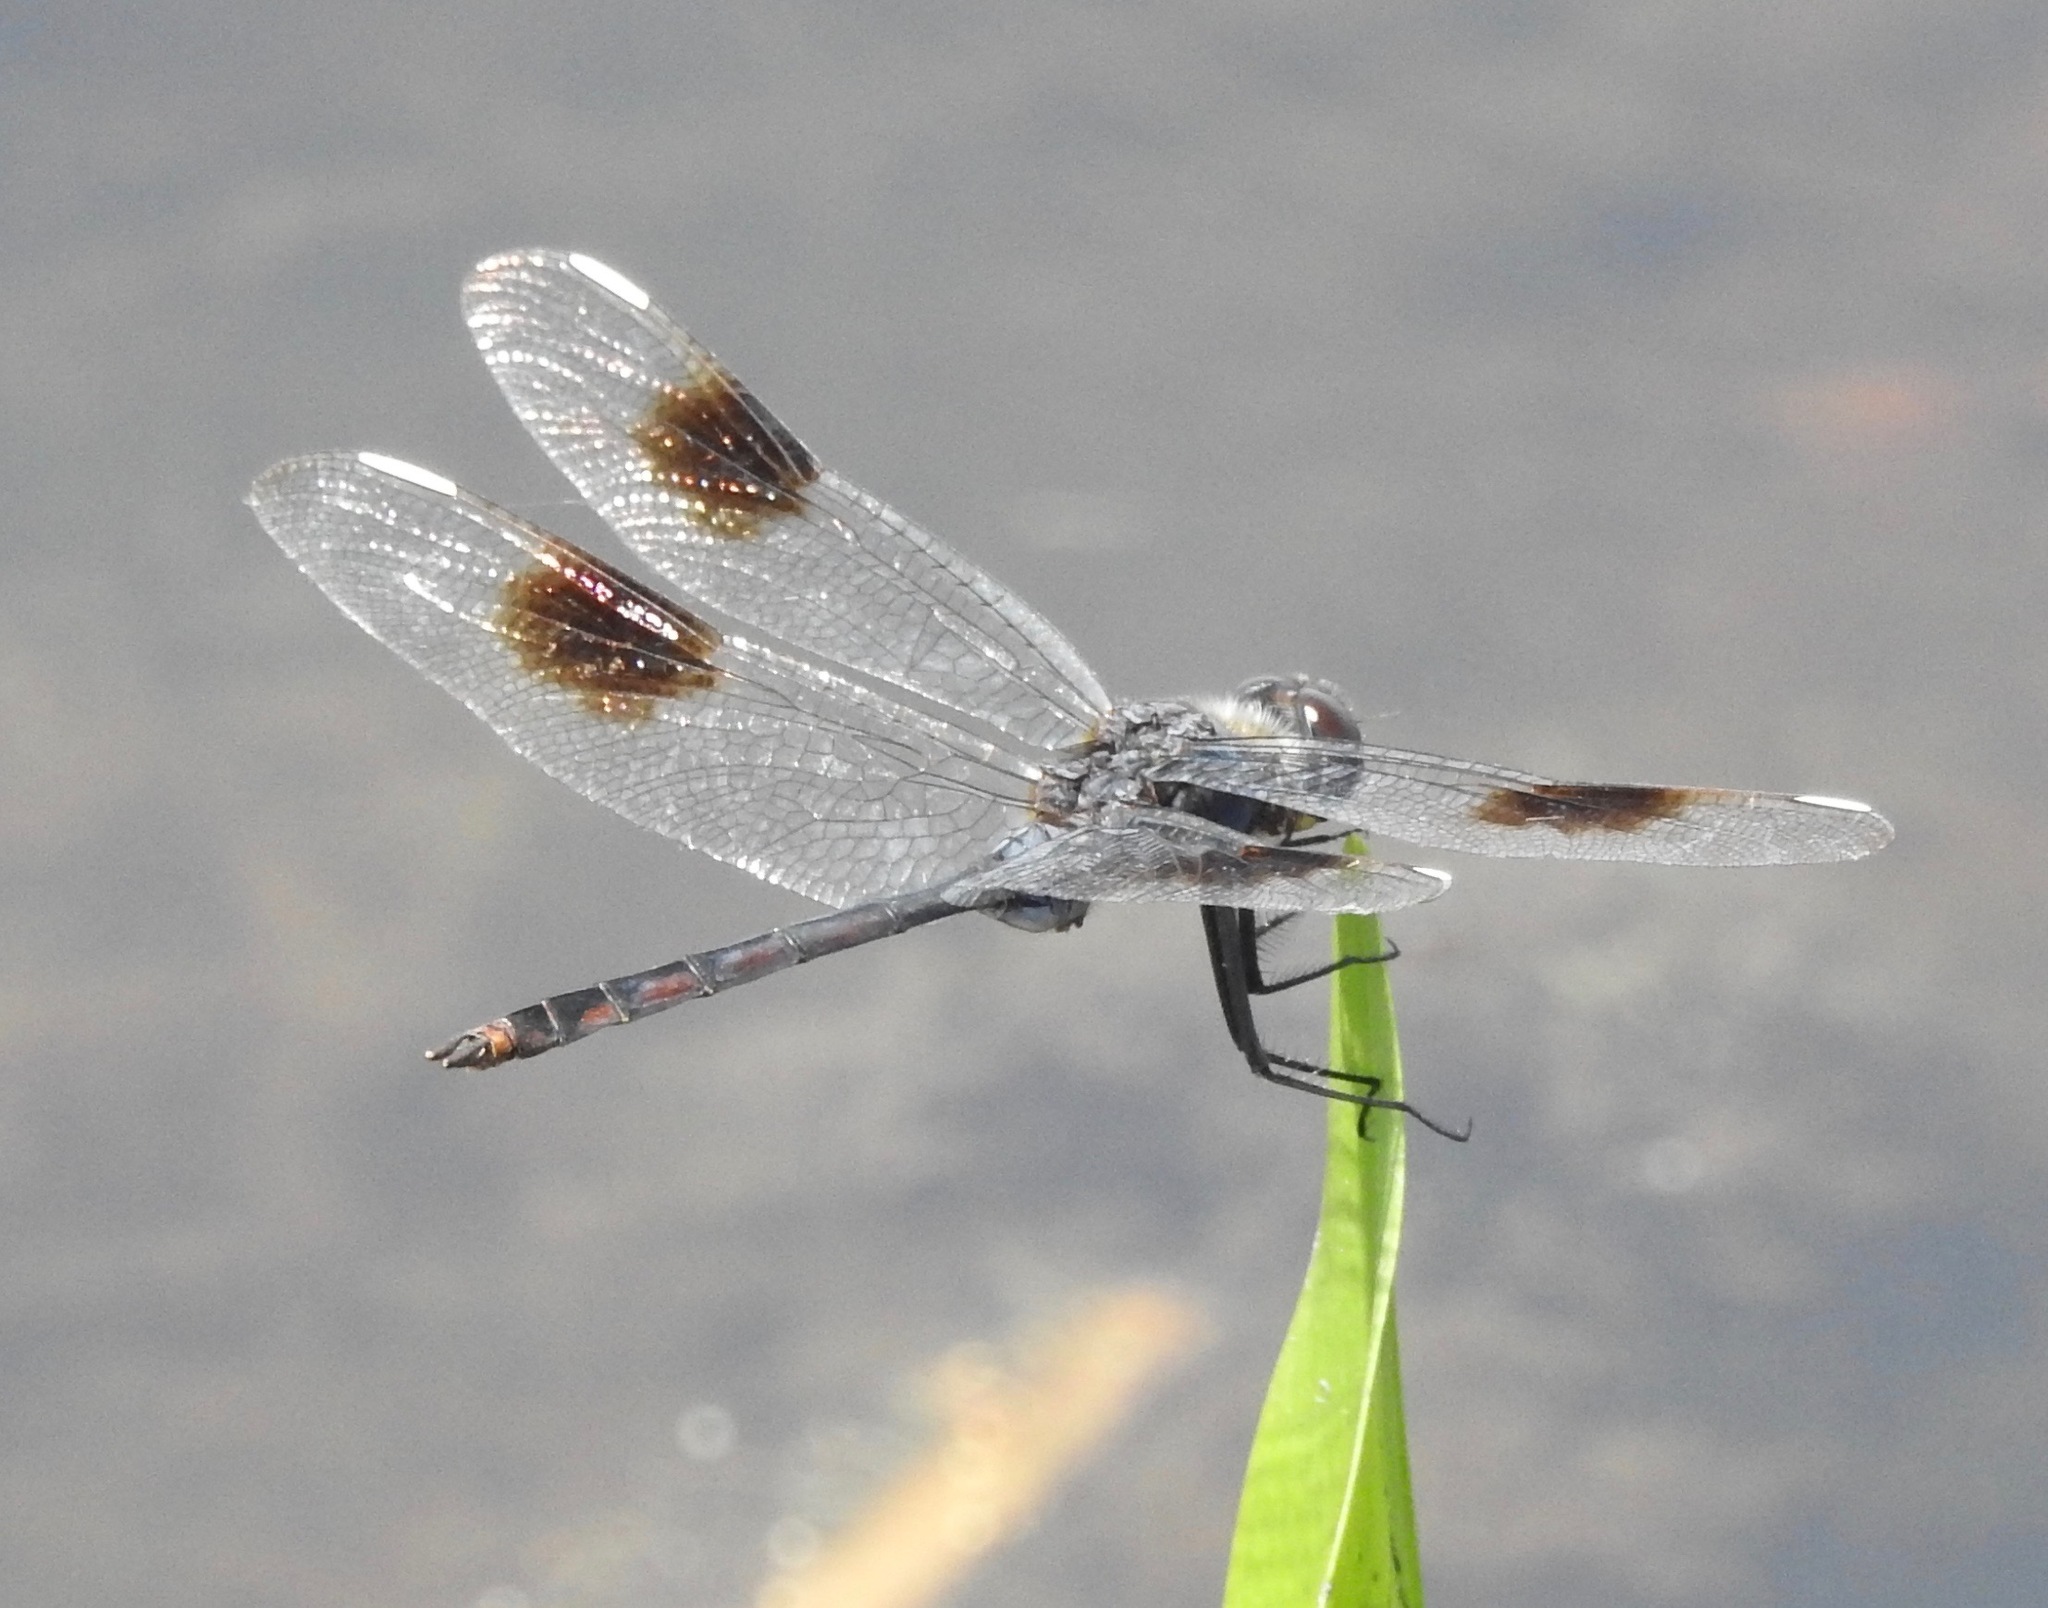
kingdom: Animalia
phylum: Arthropoda
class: Insecta
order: Odonata
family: Libellulidae
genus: Brachymesia
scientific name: Brachymesia gravida
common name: Four-spotted pennant
